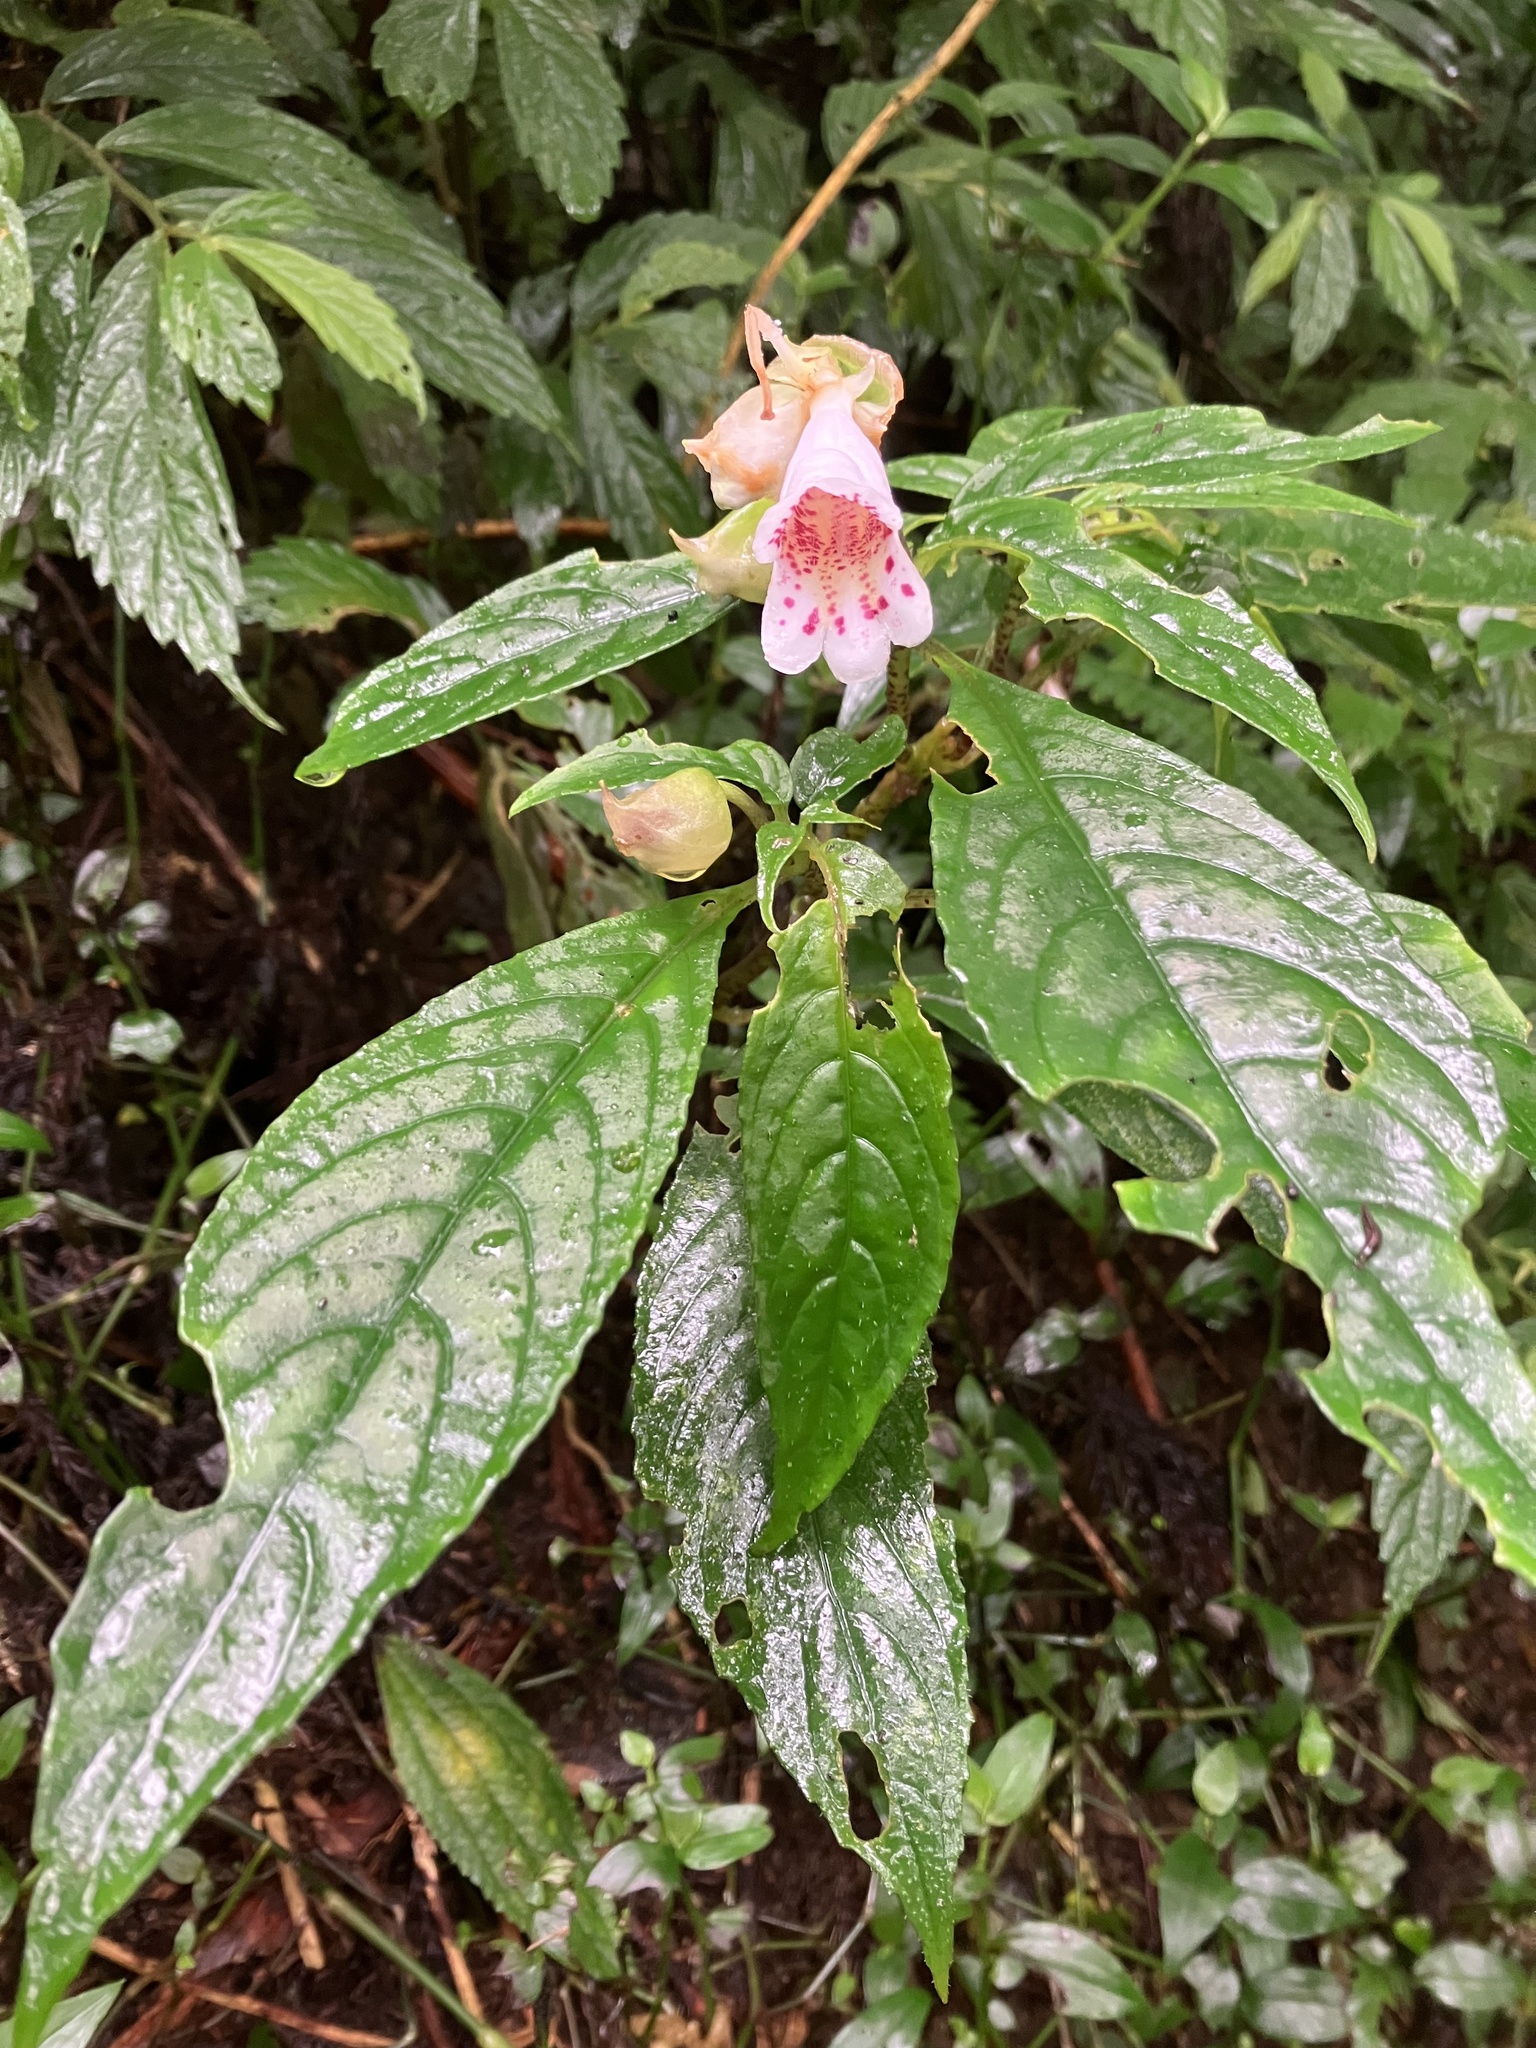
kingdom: Plantae
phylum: Tracheophyta
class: Magnoliopsida
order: Lamiales
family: Gesneriaceae
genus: Hemiboea
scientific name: Hemiboea bicornuta
